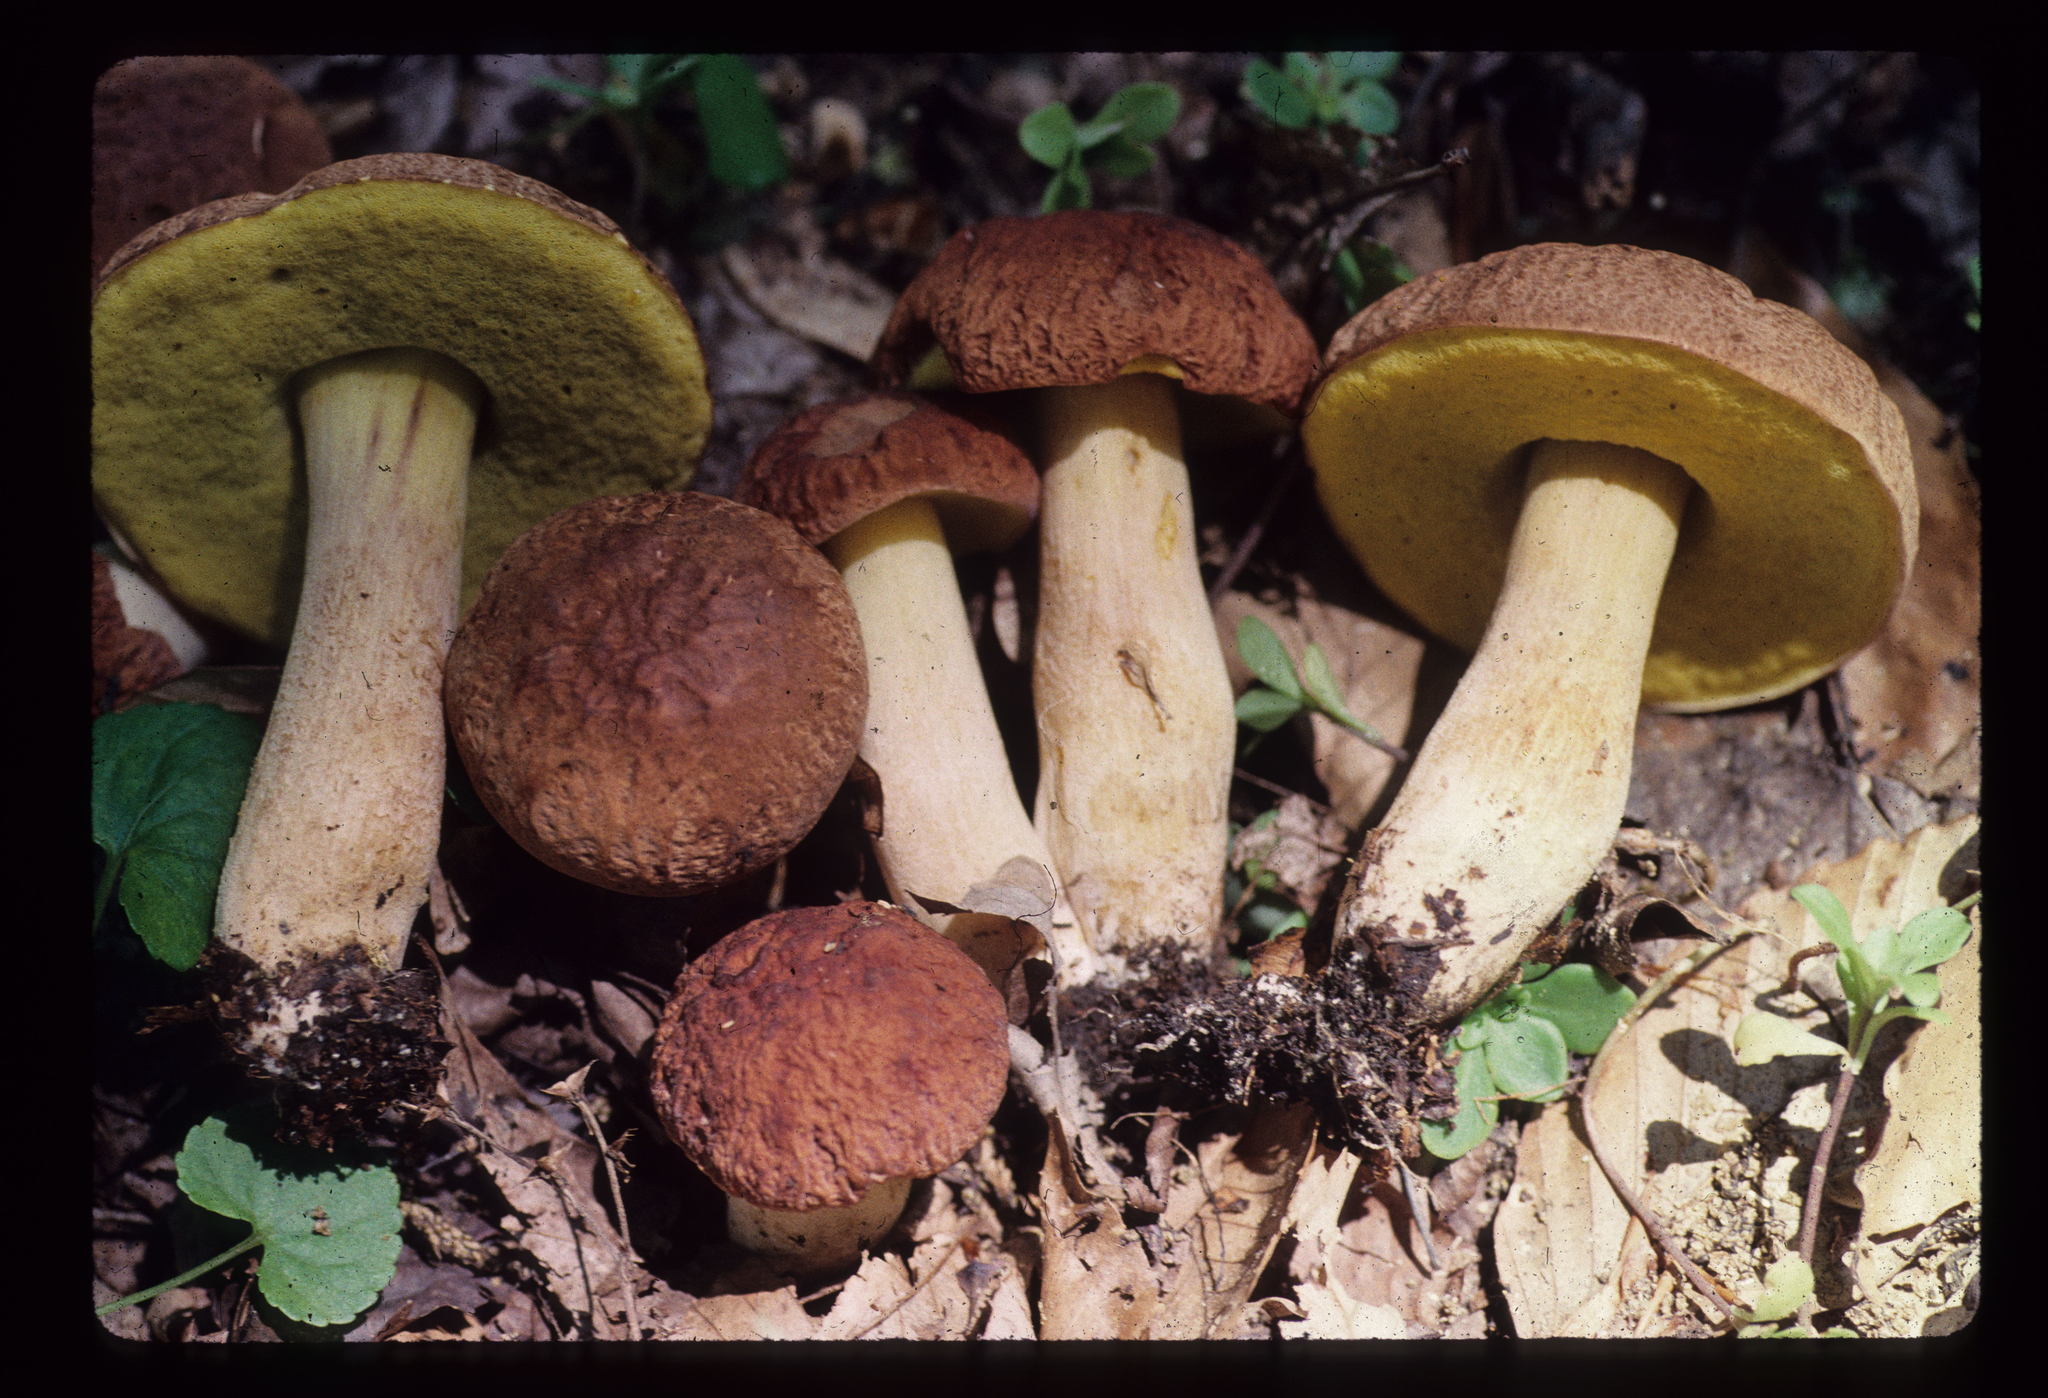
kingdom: Fungi
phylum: Basidiomycota
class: Agaricomycetes
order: Boletales
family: Boletaceae
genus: Hemileccinum
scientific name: Hemileccinum hortonii
